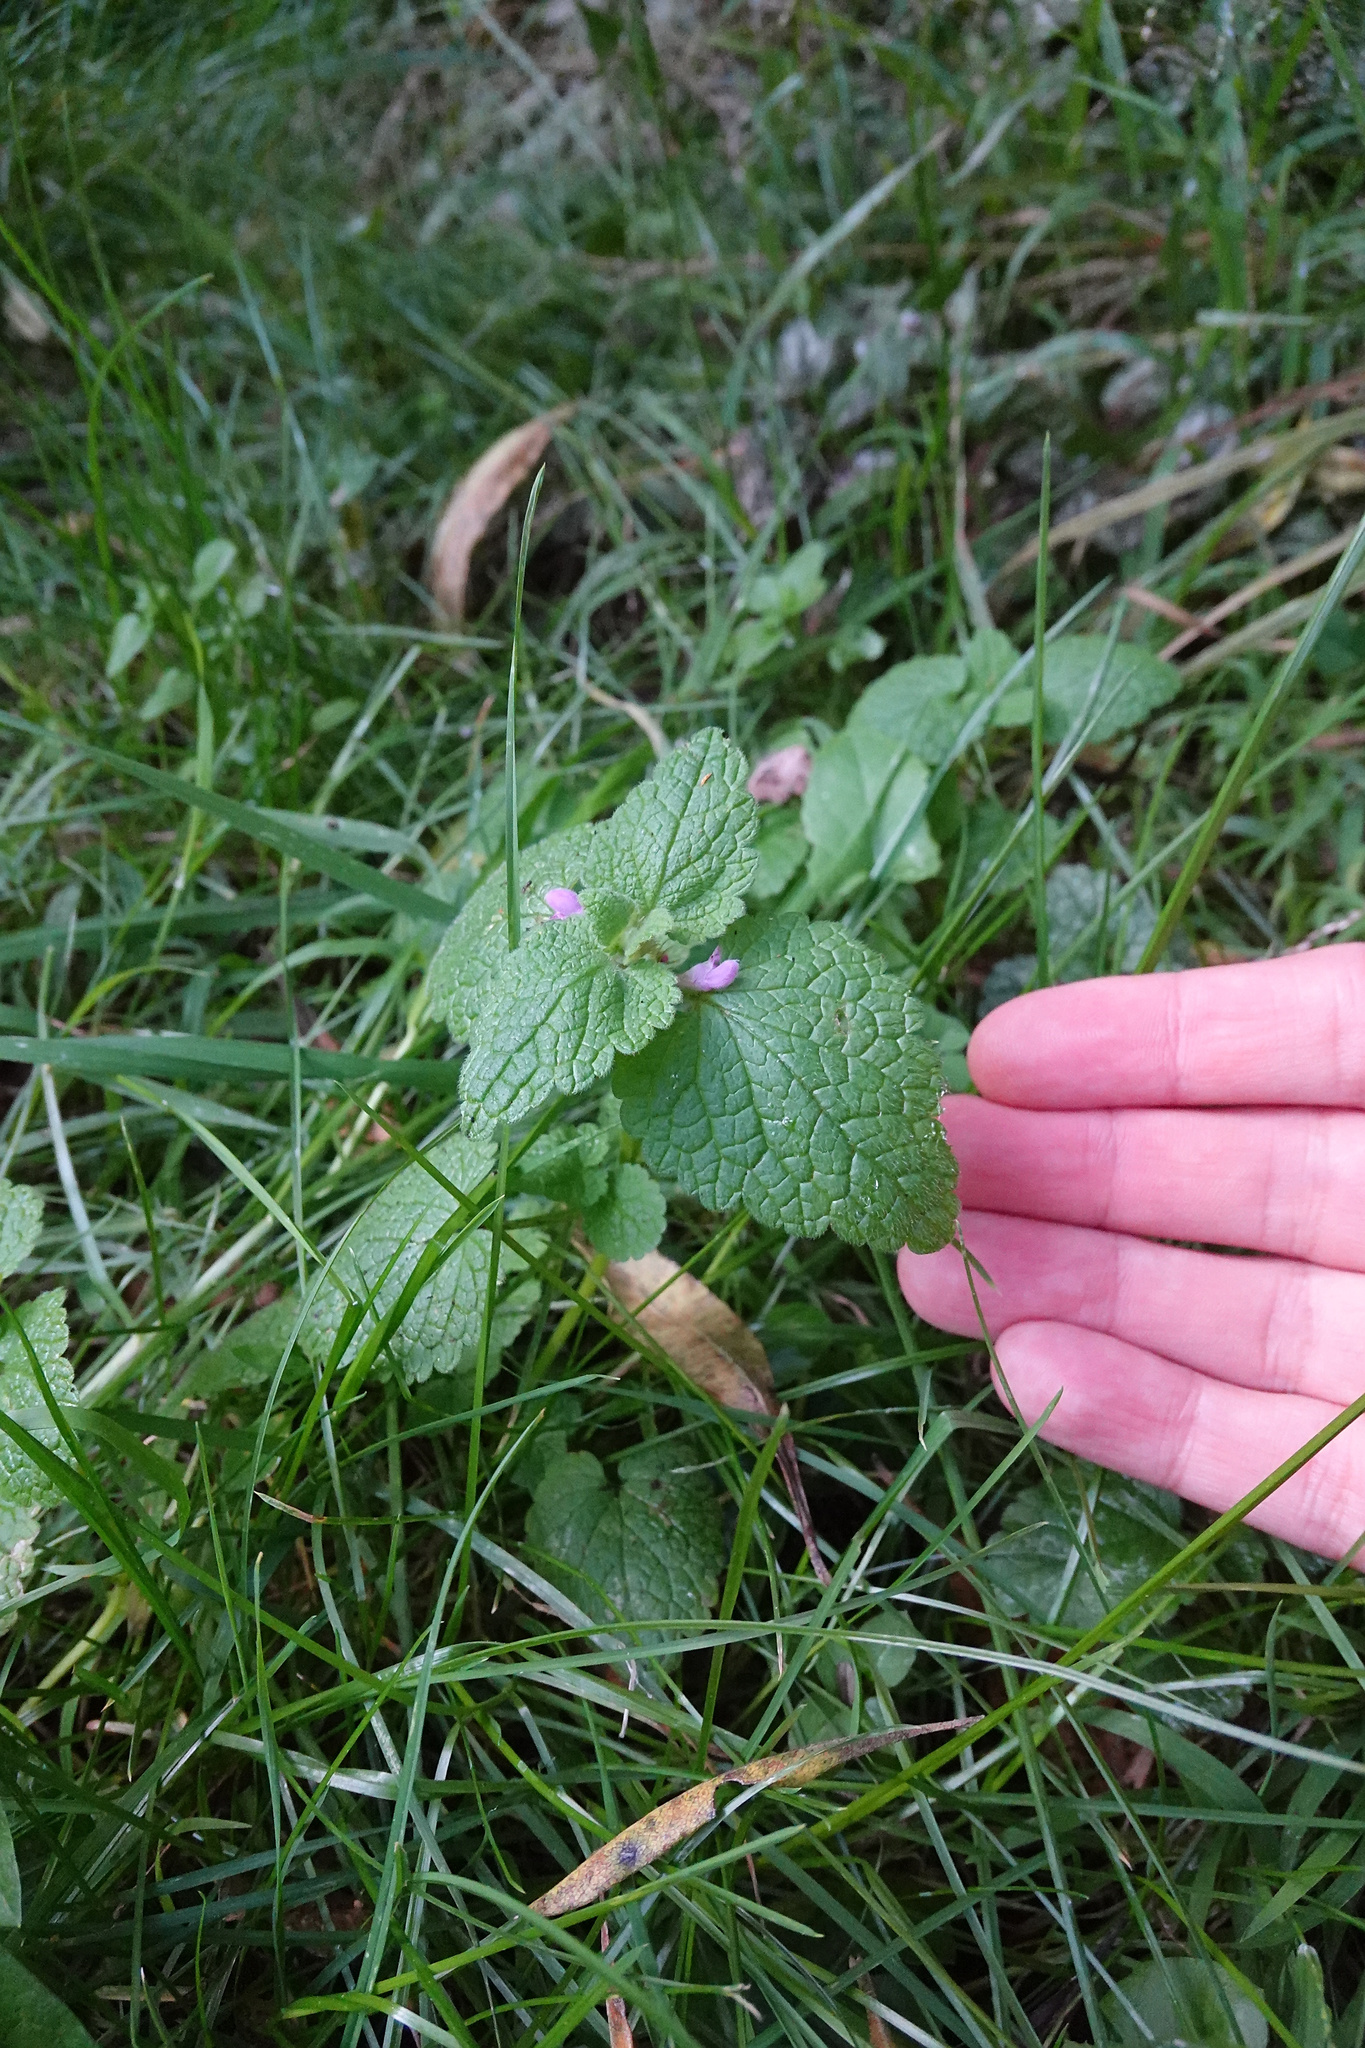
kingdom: Plantae
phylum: Tracheophyta
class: Magnoliopsida
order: Lamiales
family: Lamiaceae
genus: Lamium
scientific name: Lamium purpureum
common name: Red dead-nettle
